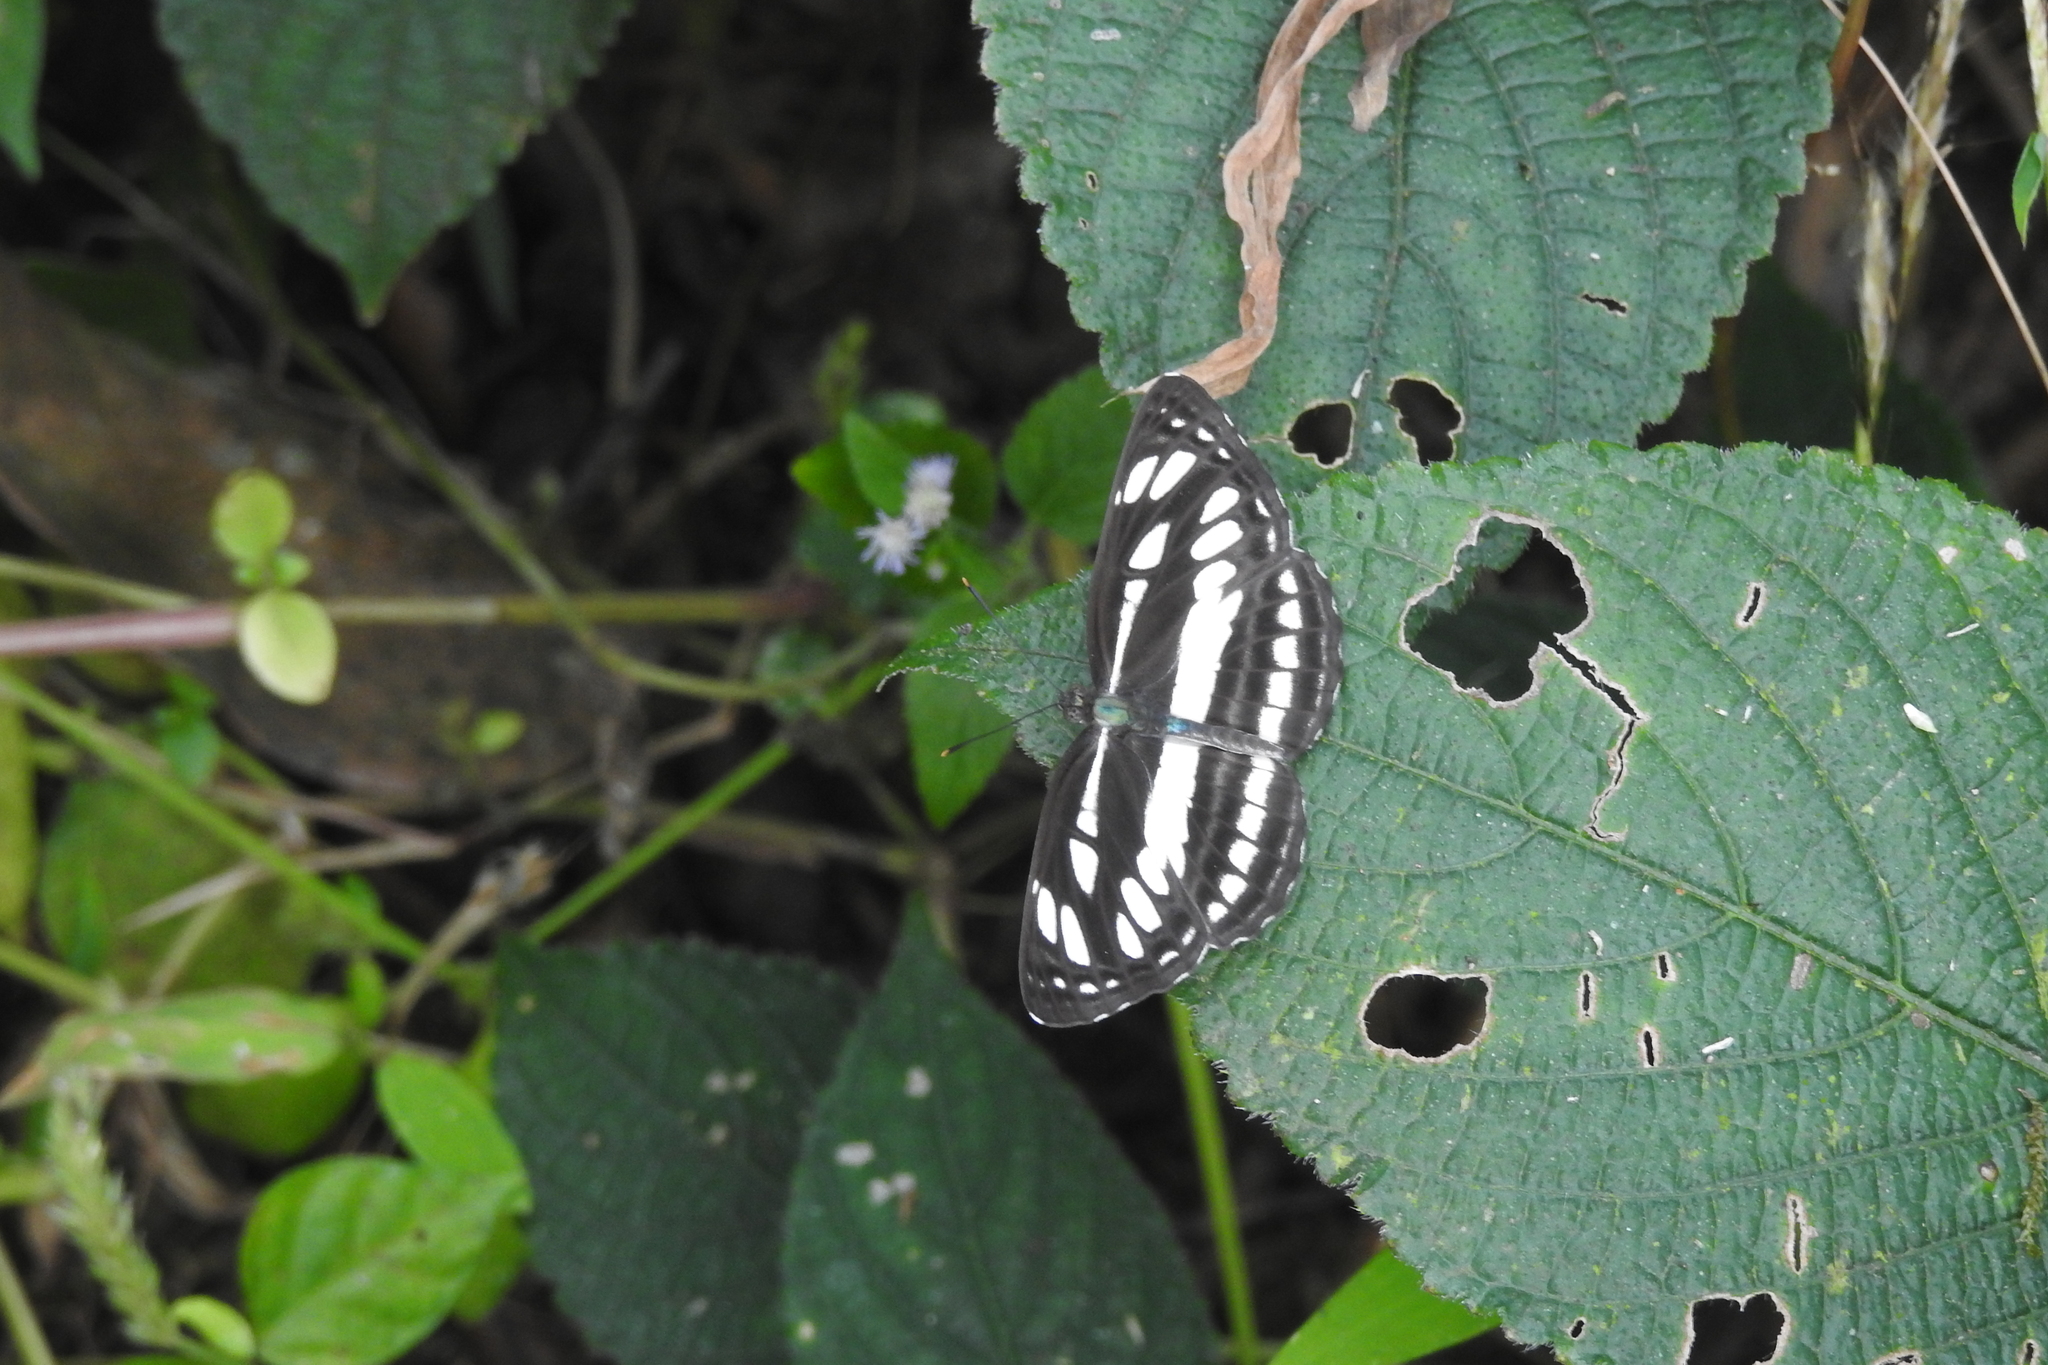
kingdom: Animalia
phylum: Arthropoda
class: Insecta
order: Lepidoptera
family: Nymphalidae
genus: Neptis
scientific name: Neptis hylas
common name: Common sailer
